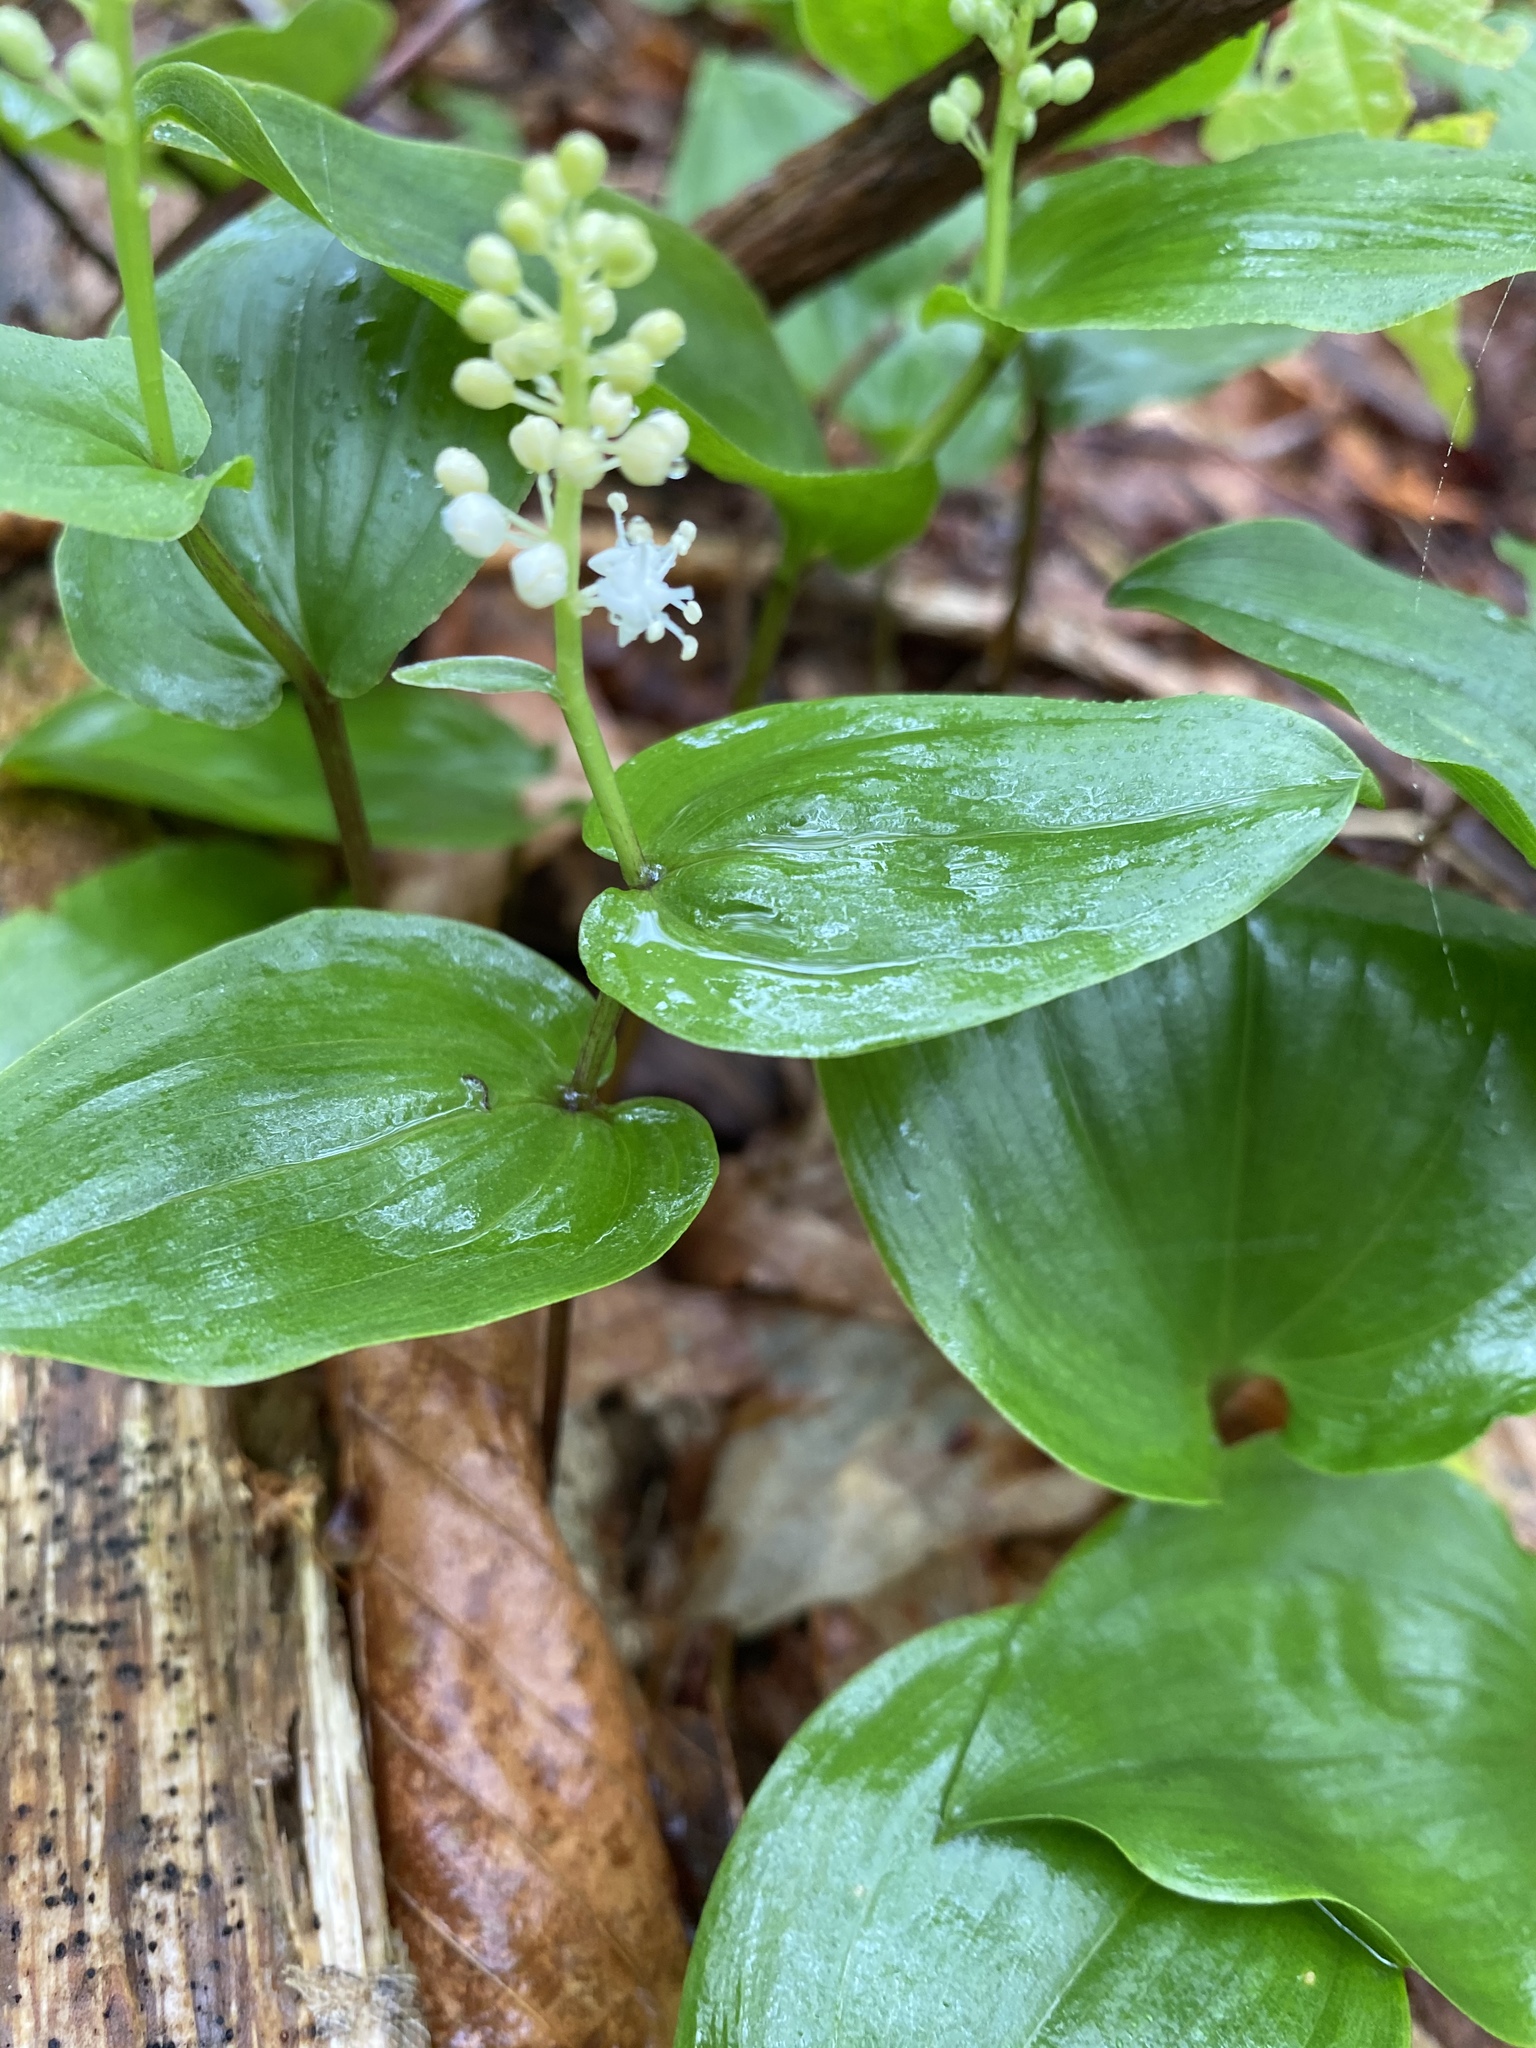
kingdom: Plantae
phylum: Tracheophyta
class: Liliopsida
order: Asparagales
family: Asparagaceae
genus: Maianthemum
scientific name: Maianthemum canadense
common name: False lily-of-the-valley
